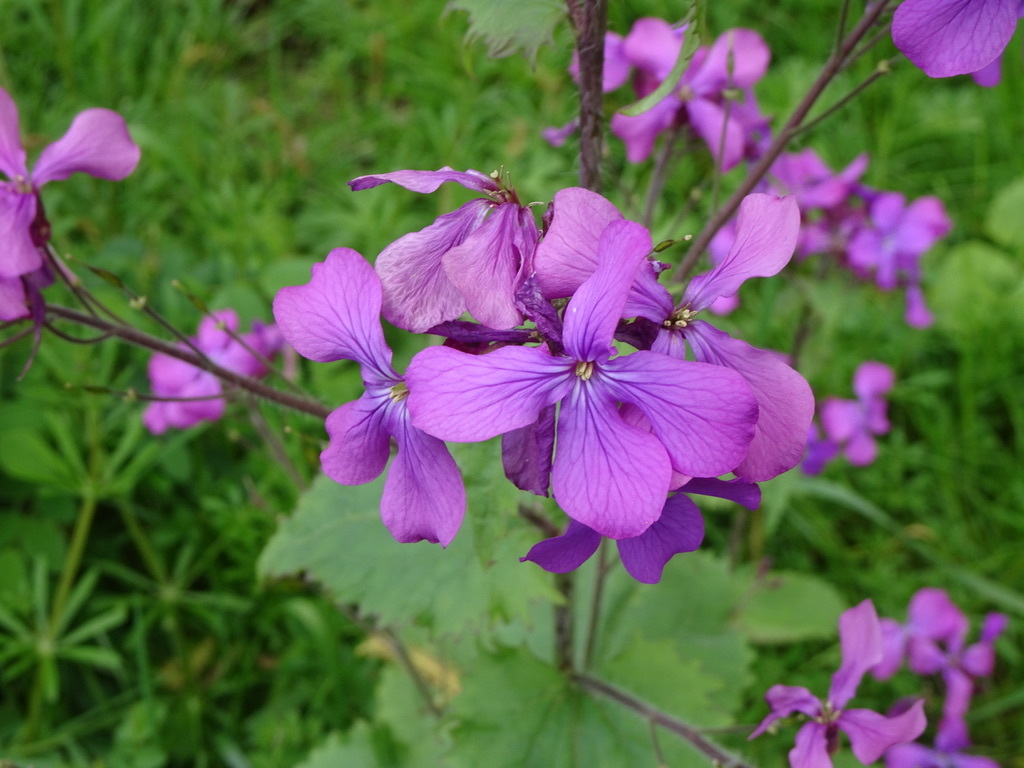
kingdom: Plantae
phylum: Tracheophyta
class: Magnoliopsida
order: Brassicales
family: Brassicaceae
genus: Lunaria
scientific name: Lunaria annua
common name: Honesty
